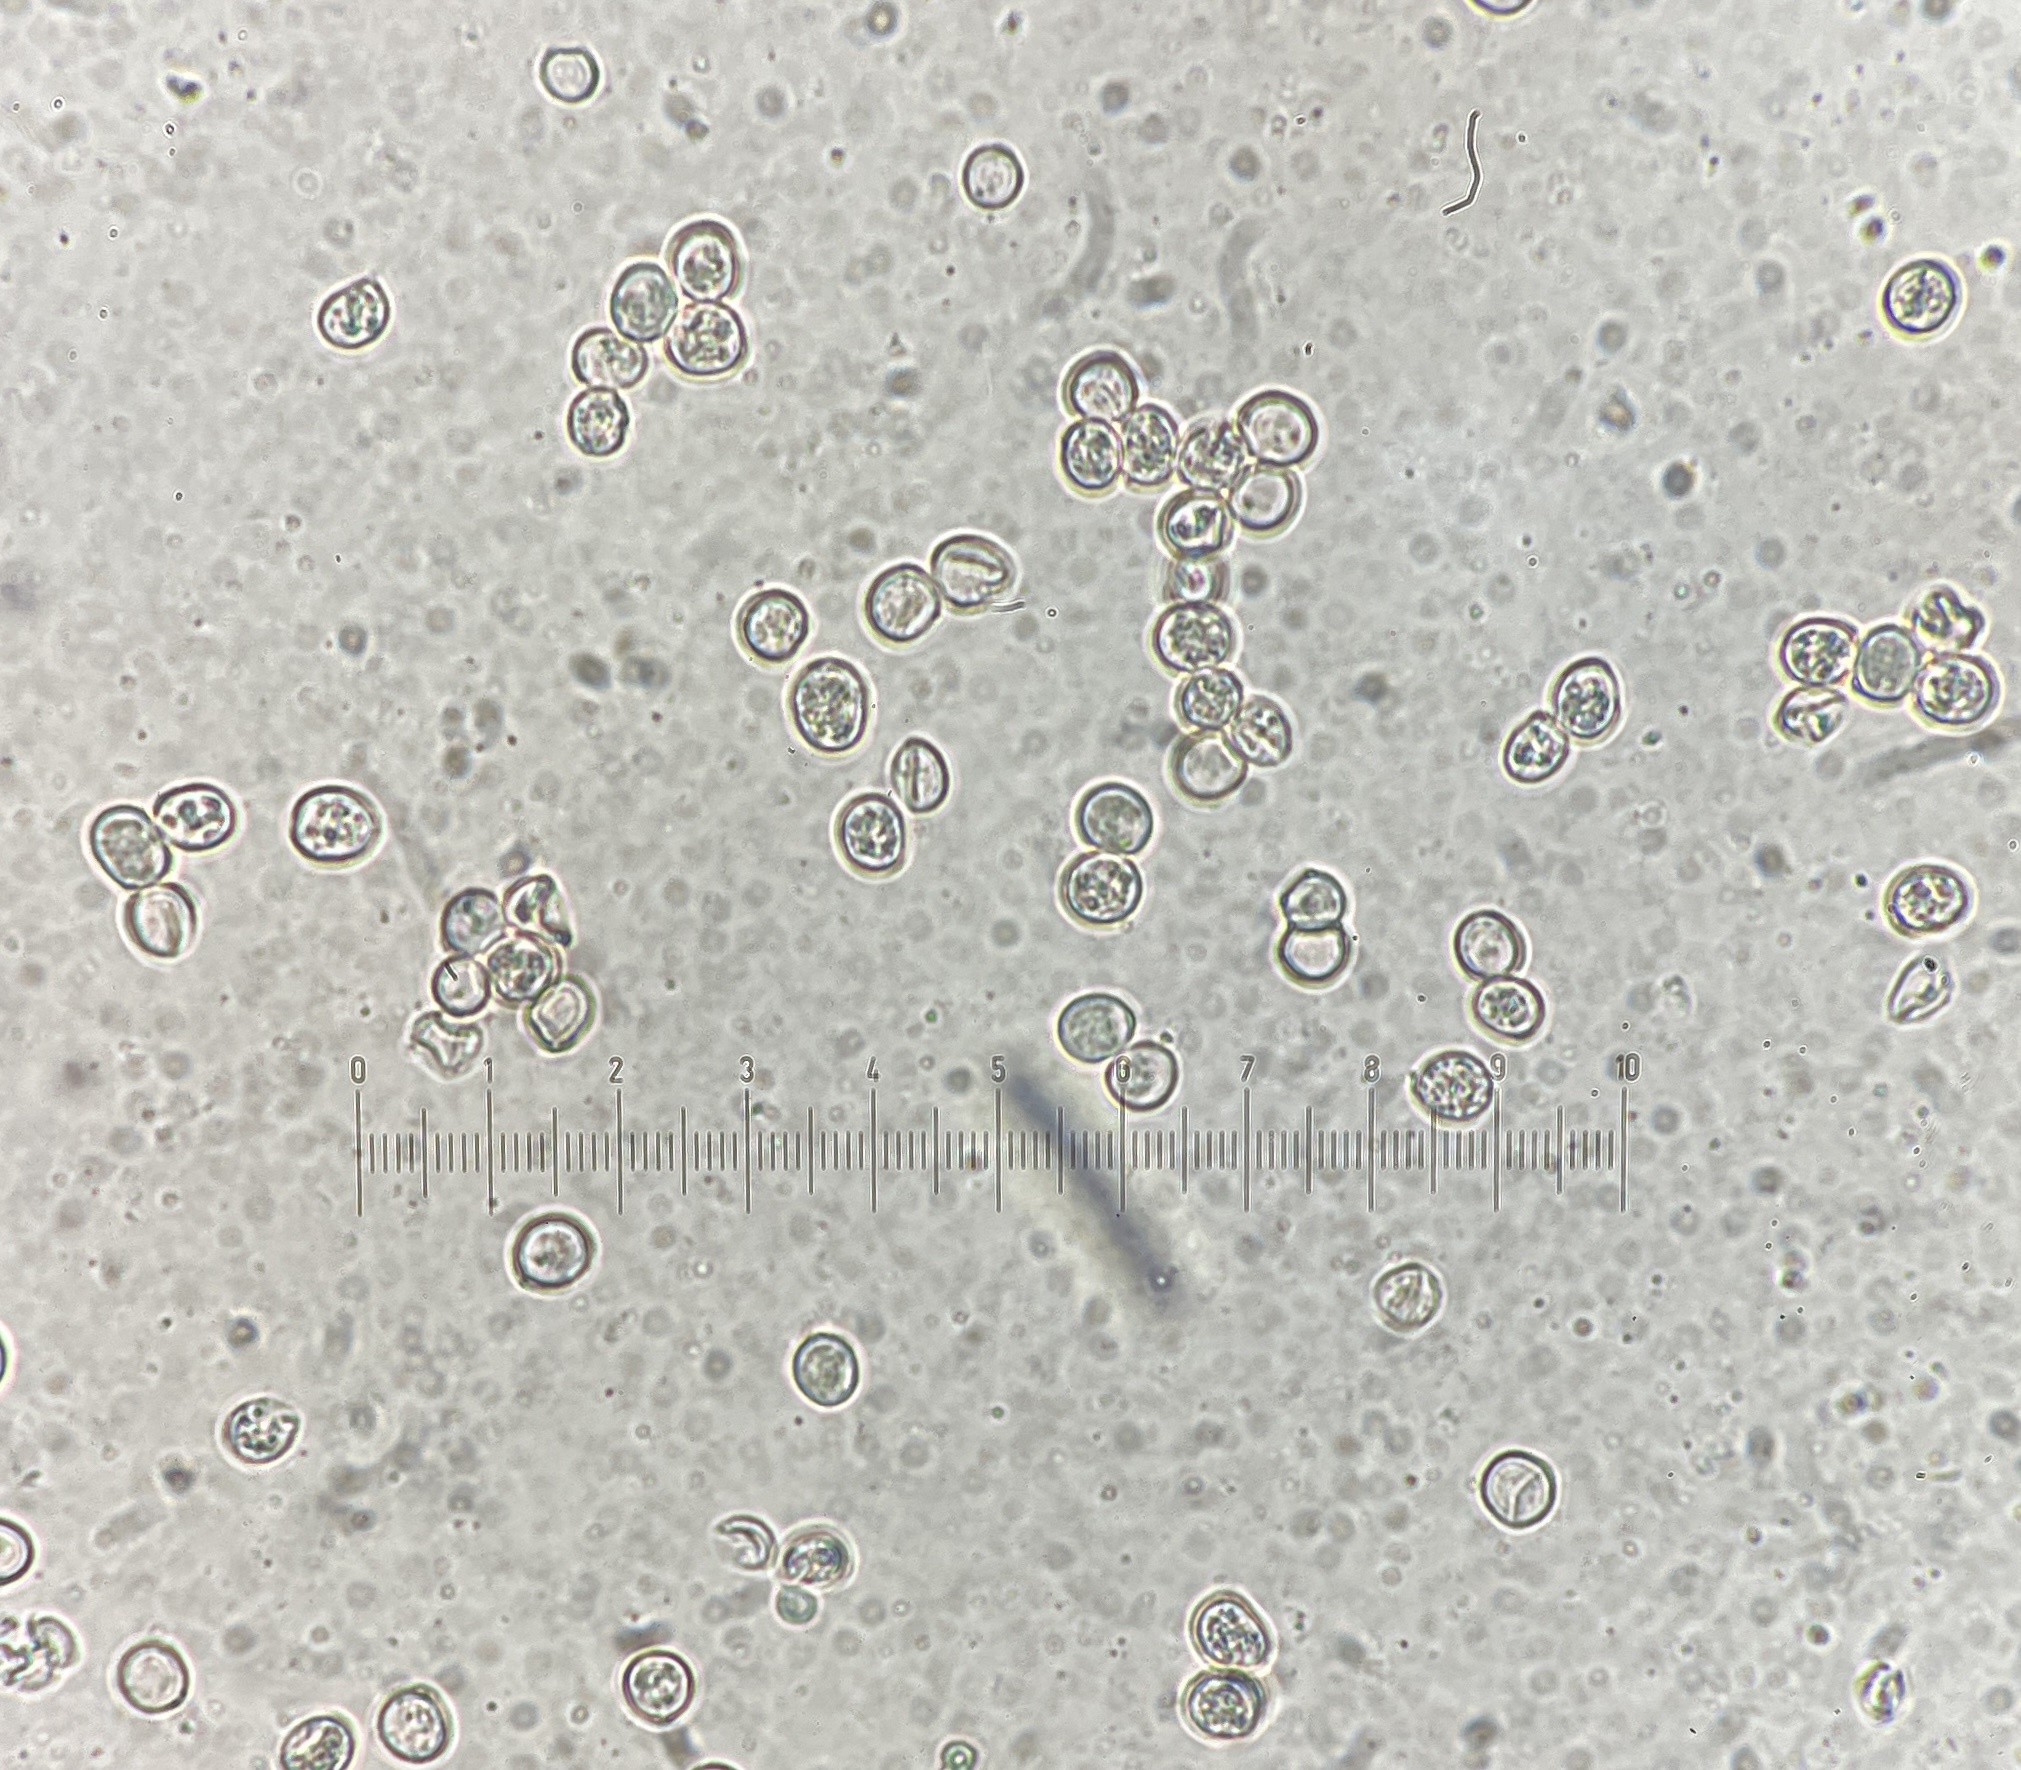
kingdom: Fungi
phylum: Basidiomycota
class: Agaricomycetes
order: Agaricales
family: Pluteaceae
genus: Pluteus
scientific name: Pluteus velutinus
